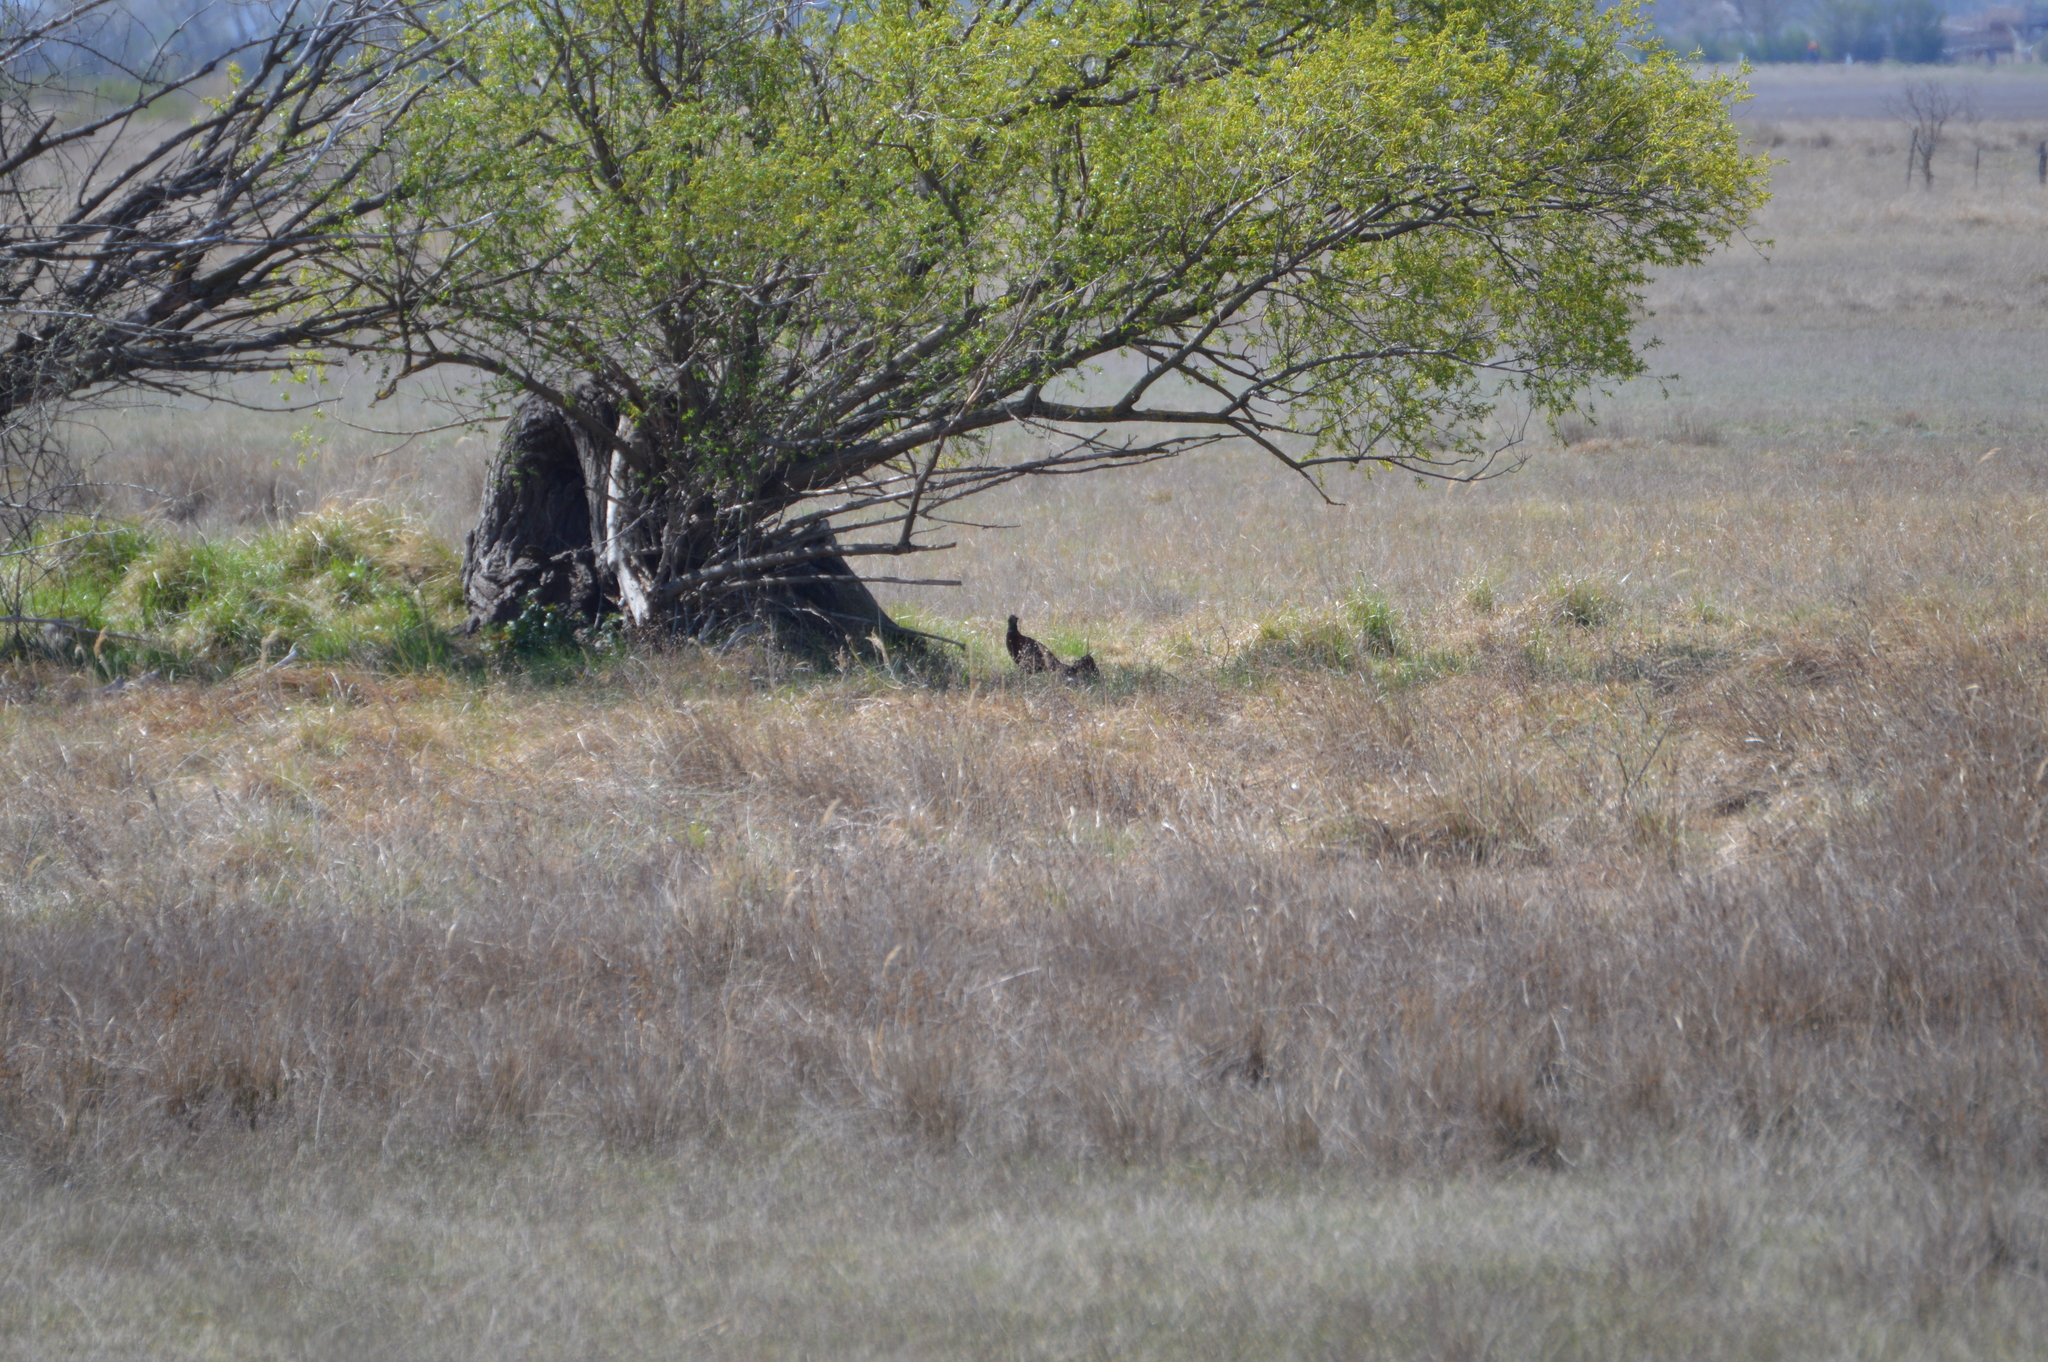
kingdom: Animalia
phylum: Chordata
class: Aves
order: Galliformes
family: Phasianidae
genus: Phasianus
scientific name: Phasianus colchicus
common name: Common pheasant
